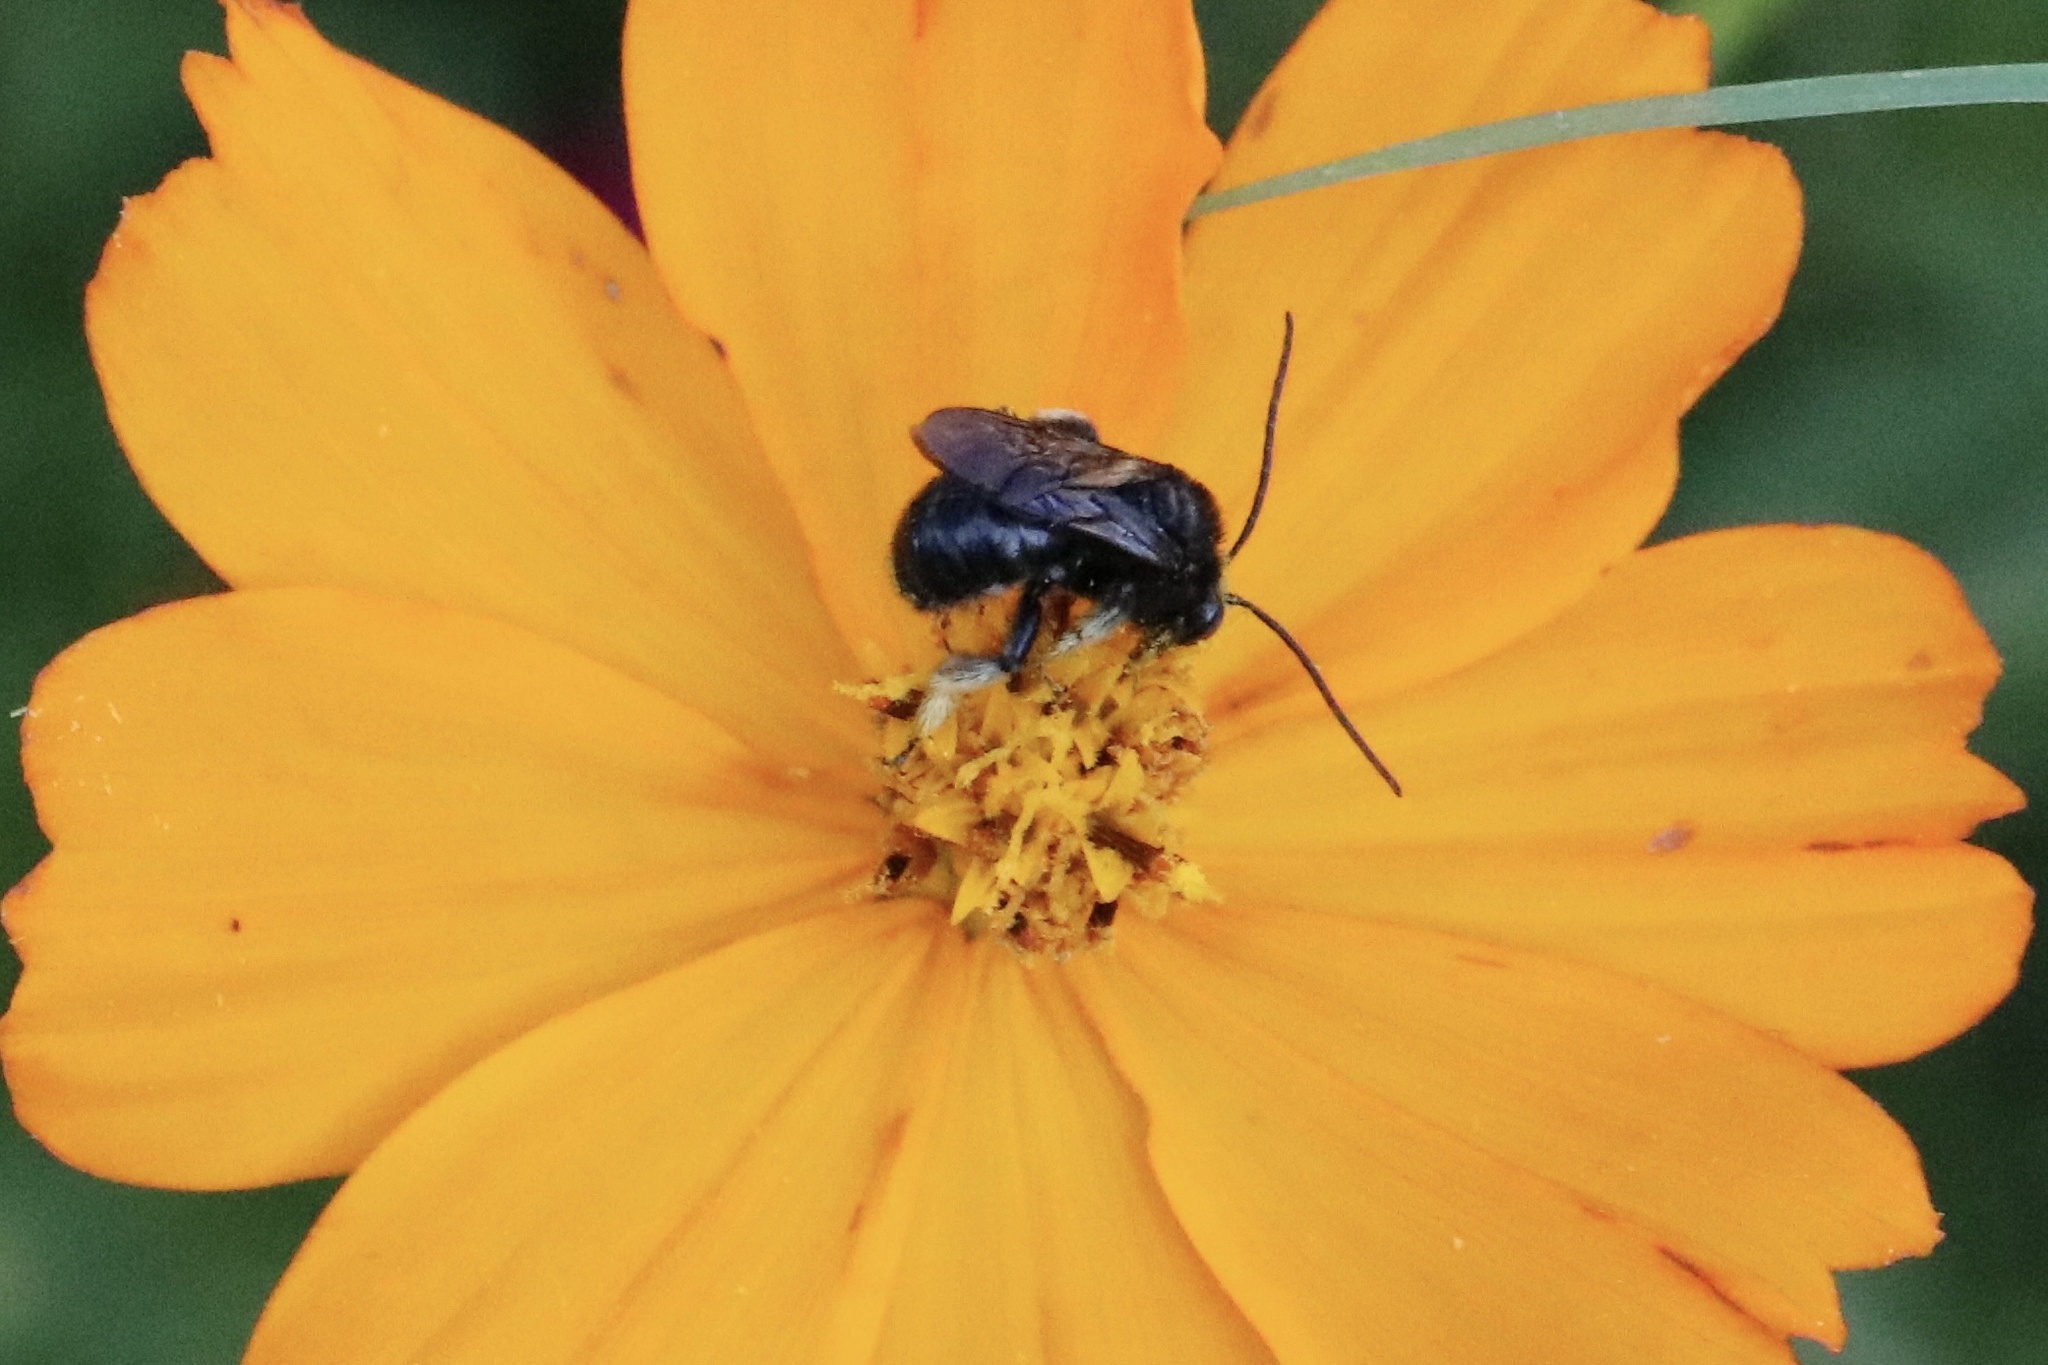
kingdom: Animalia
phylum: Arthropoda
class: Insecta
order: Hymenoptera
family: Apidae
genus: Melissodes
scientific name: Melissodes bimaculatus
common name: Two-spotted long-horned bee
